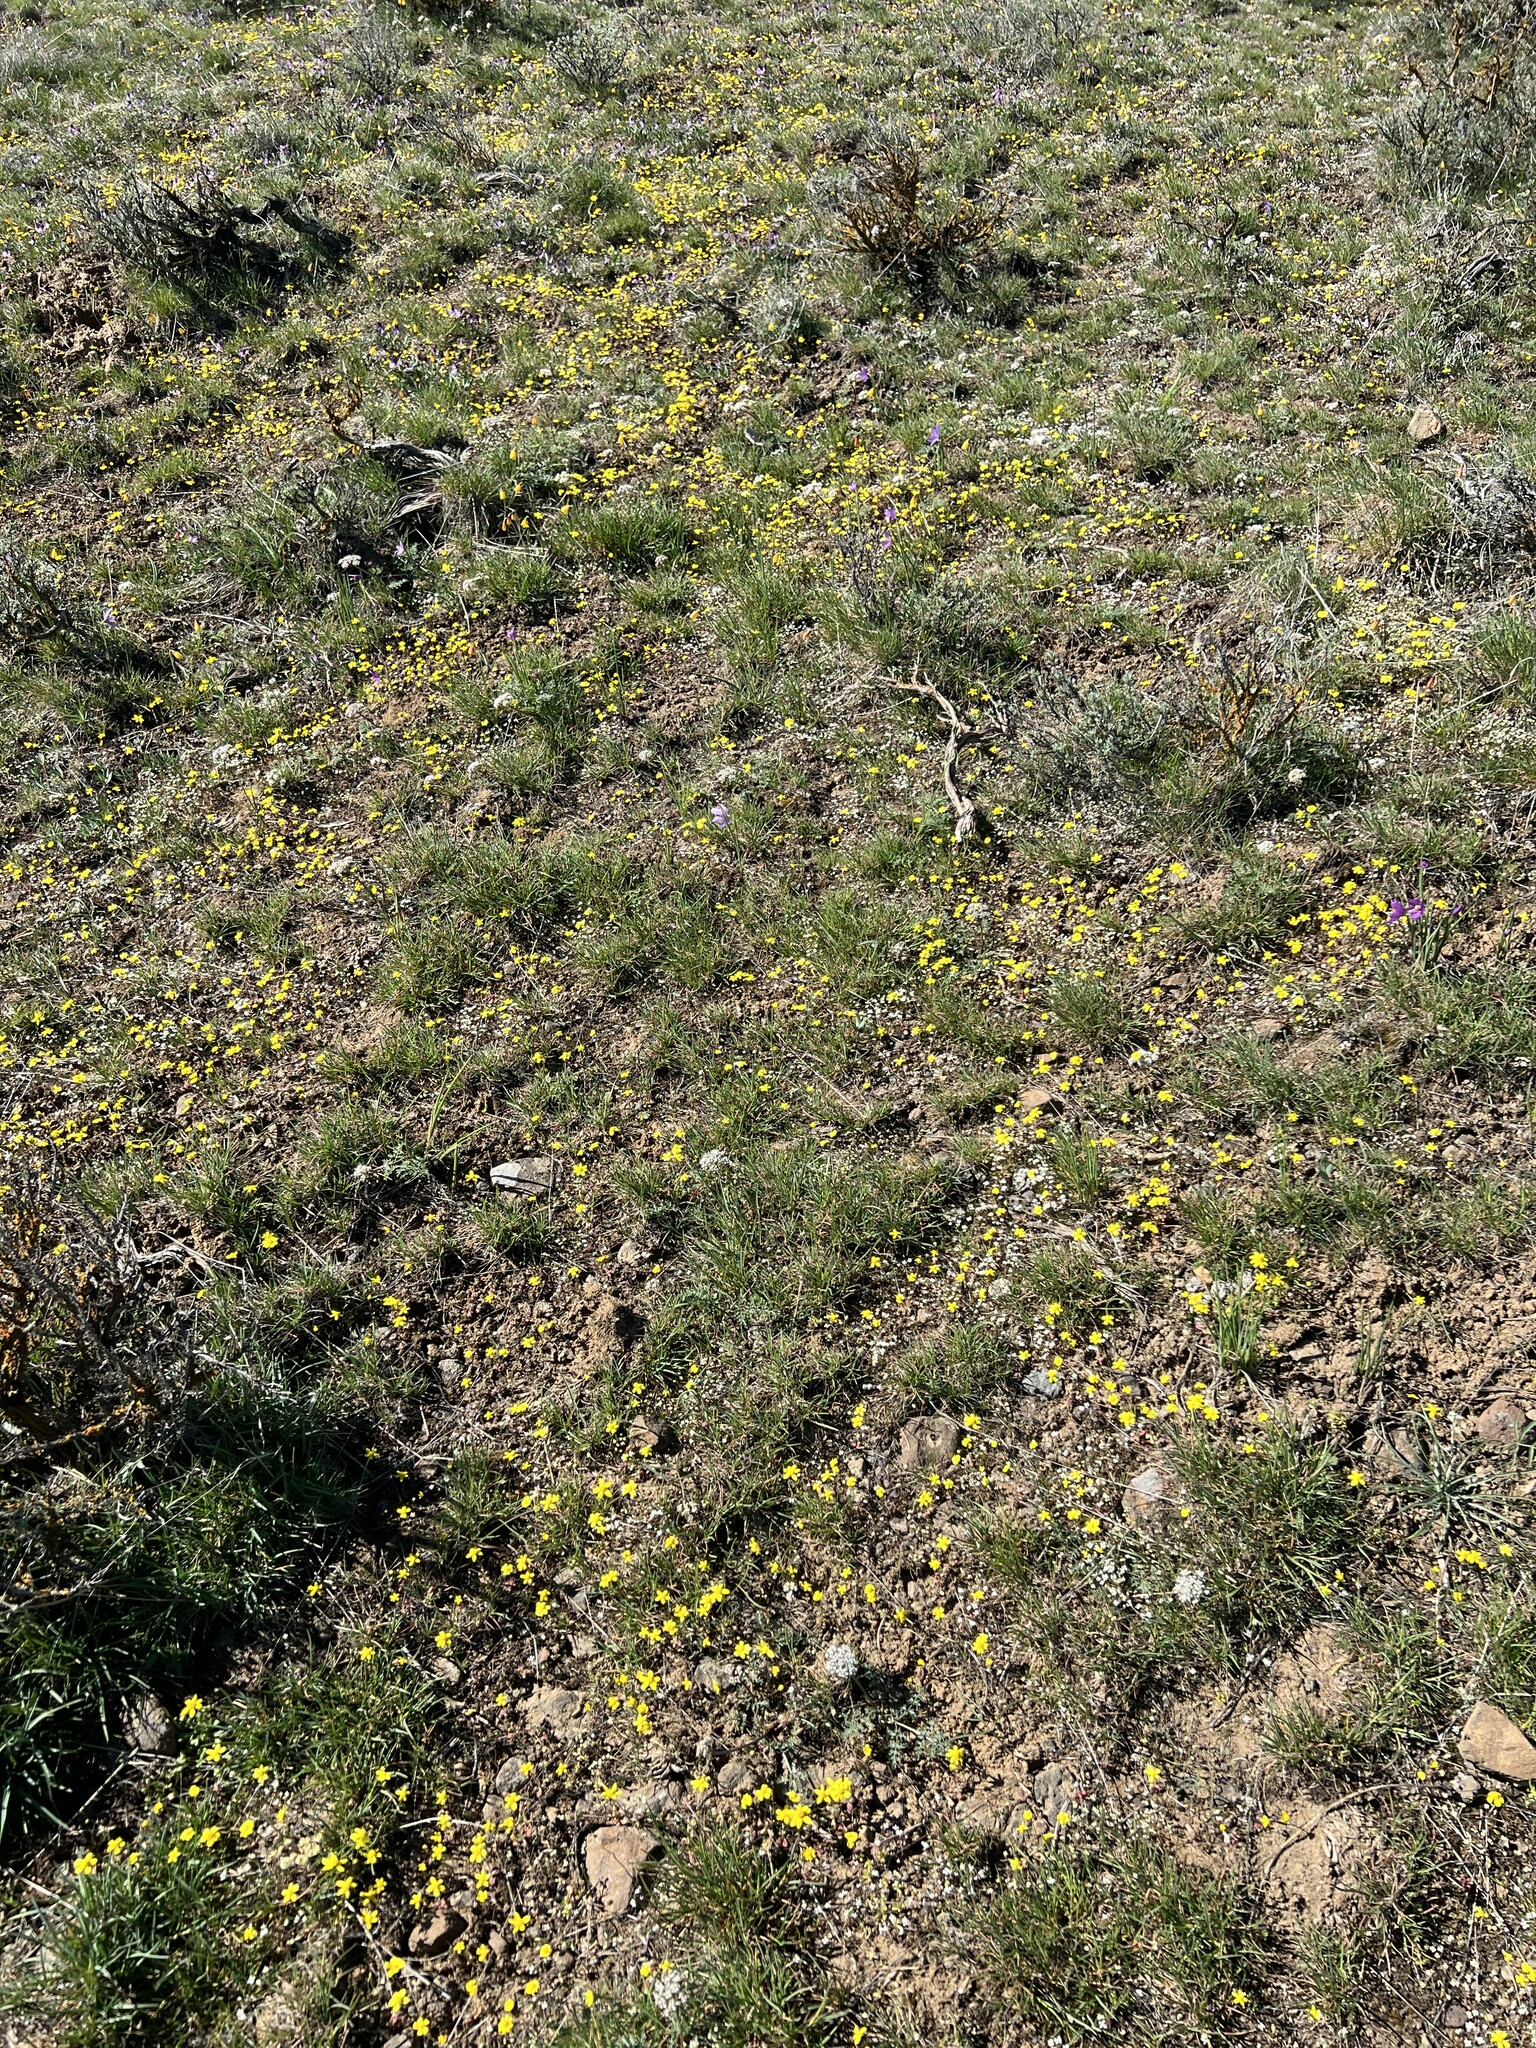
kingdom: Plantae
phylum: Tracheophyta
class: Magnoliopsida
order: Asterales
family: Asteraceae
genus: Crocidium
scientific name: Crocidium multicaule
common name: Common spring gold
